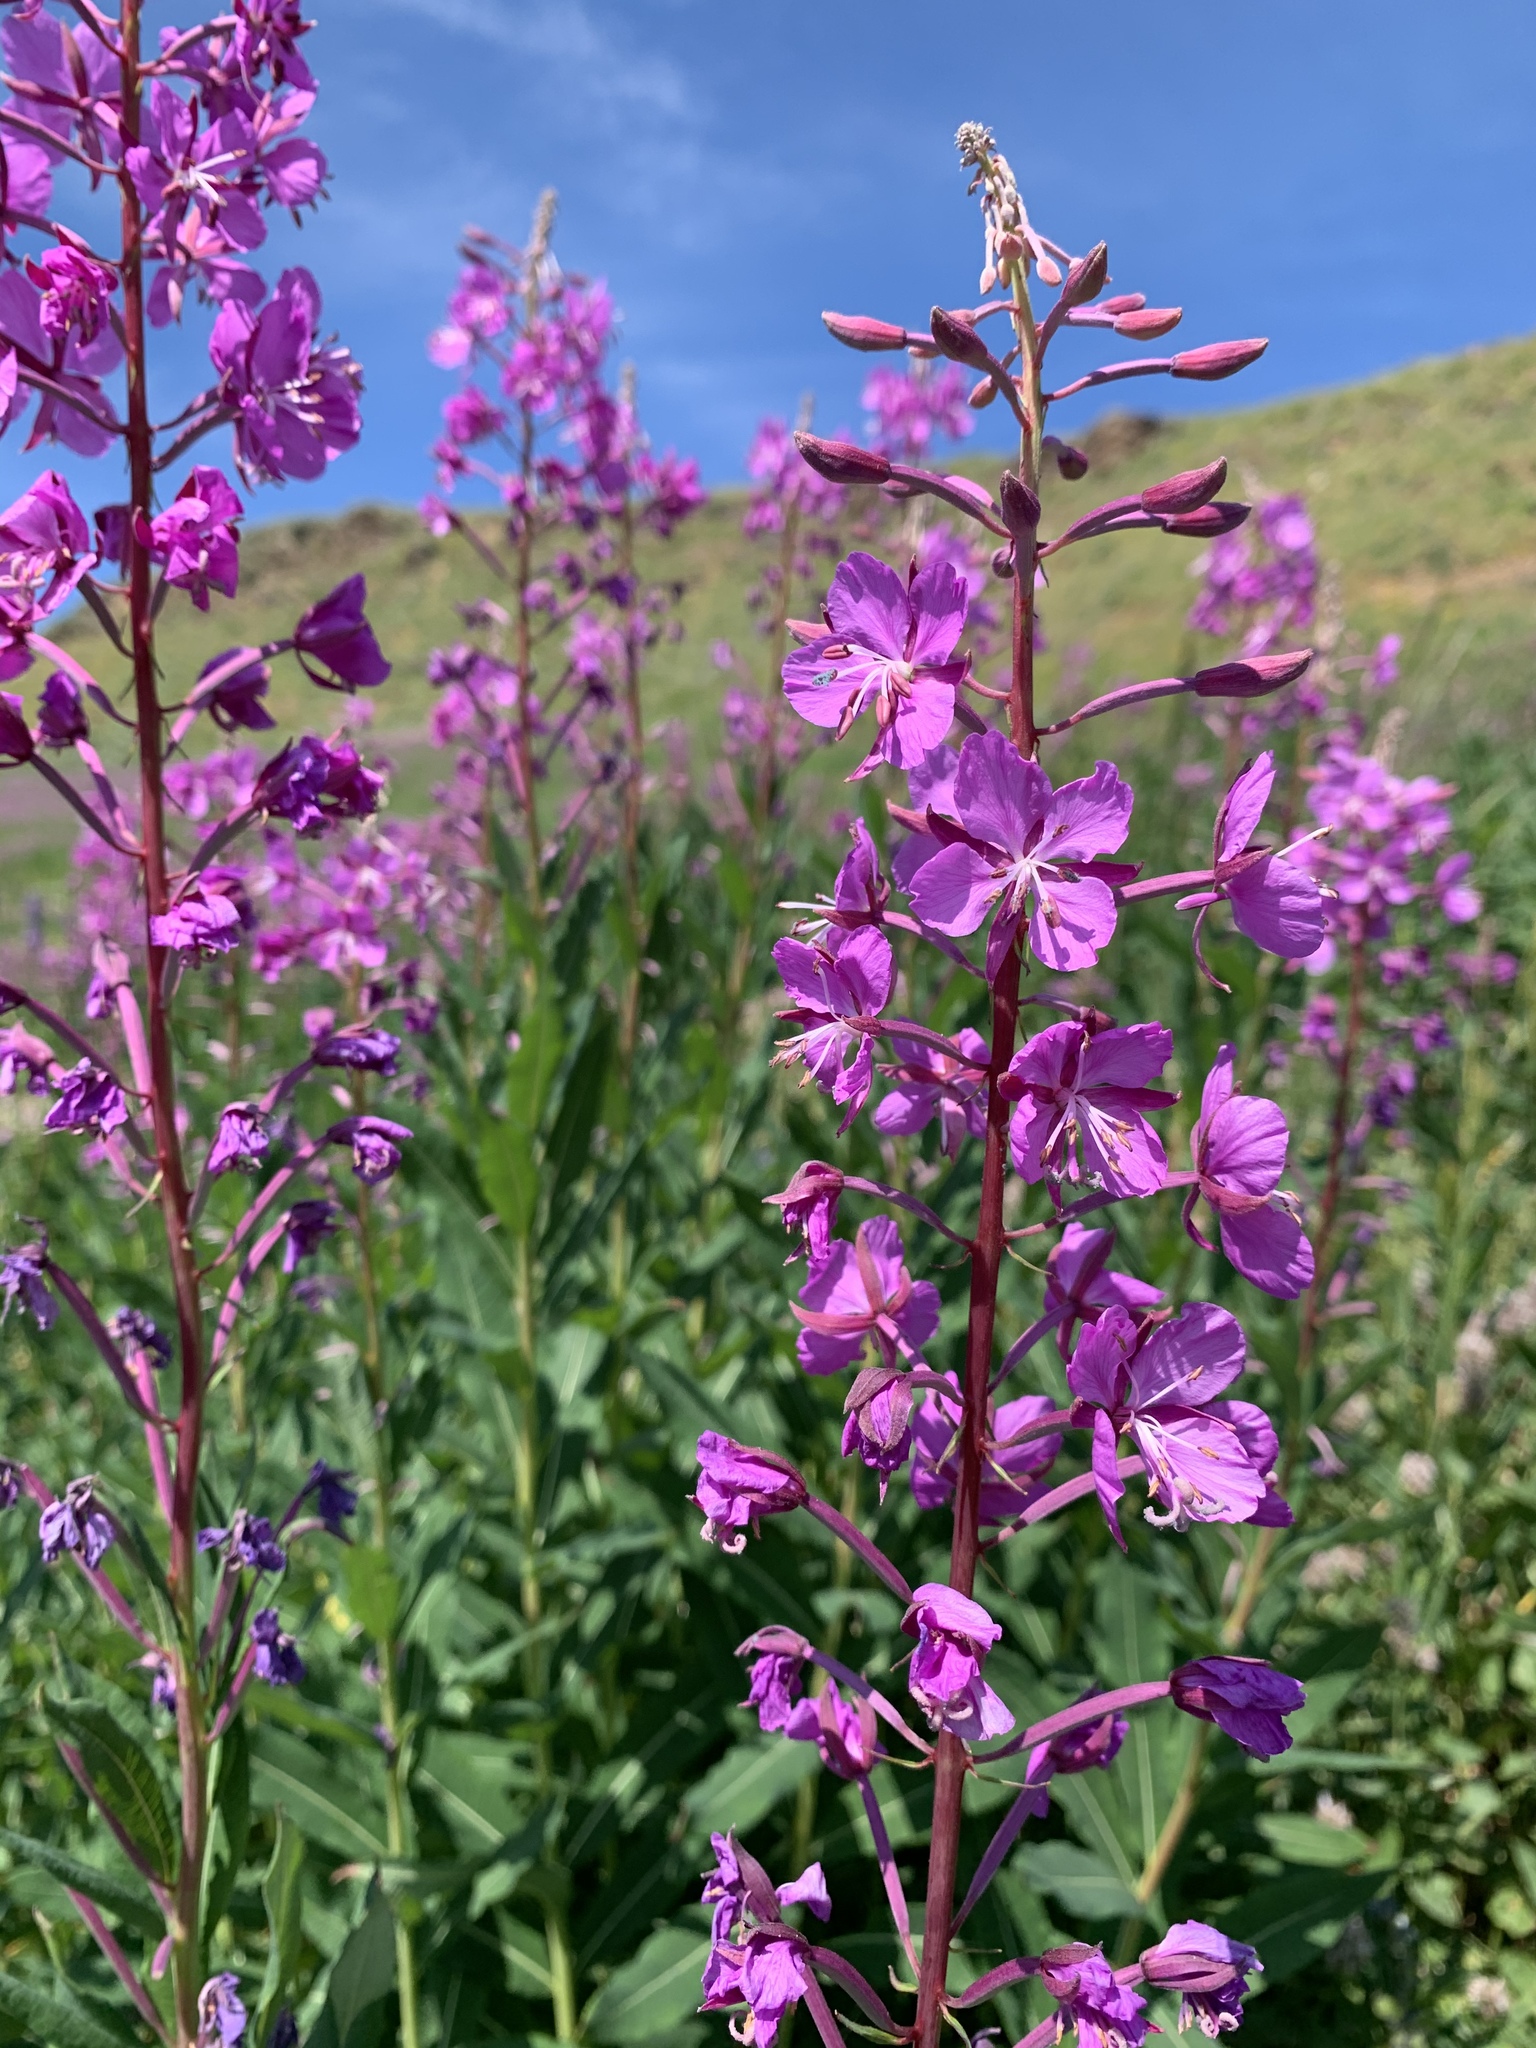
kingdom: Plantae
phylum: Tracheophyta
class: Magnoliopsida
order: Myrtales
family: Onagraceae
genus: Chamaenerion
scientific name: Chamaenerion angustifolium
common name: Fireweed
